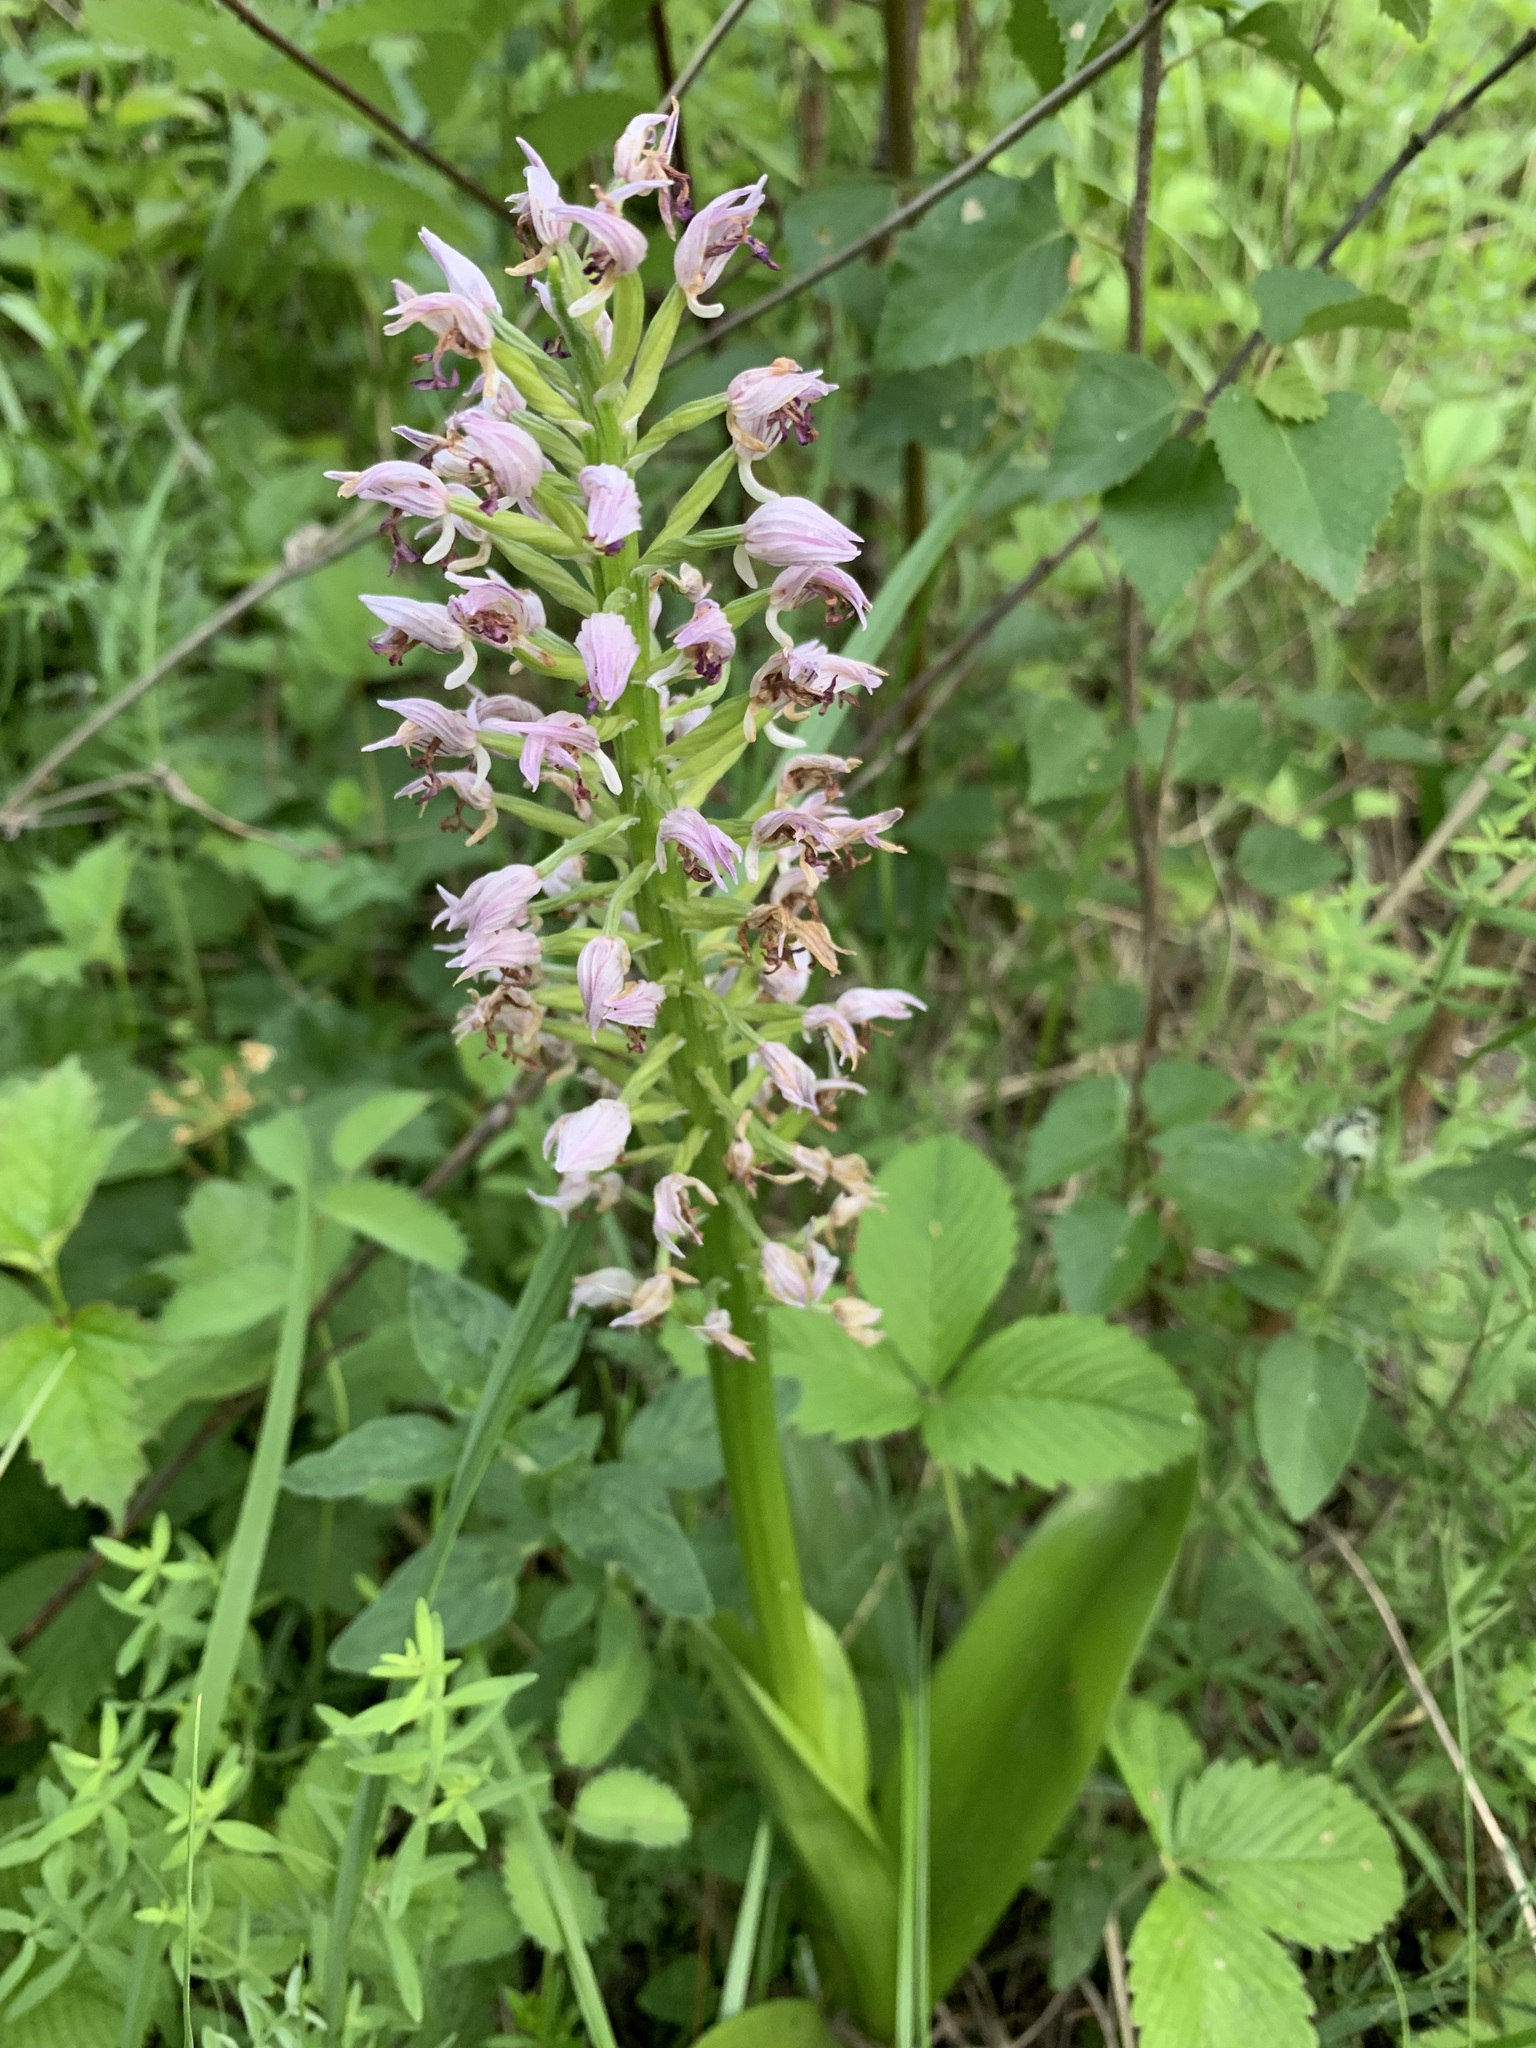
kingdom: Plantae
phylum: Tracheophyta
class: Liliopsida
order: Asparagales
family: Orchidaceae
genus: Orchis
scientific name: Orchis militaris
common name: Military orchid
